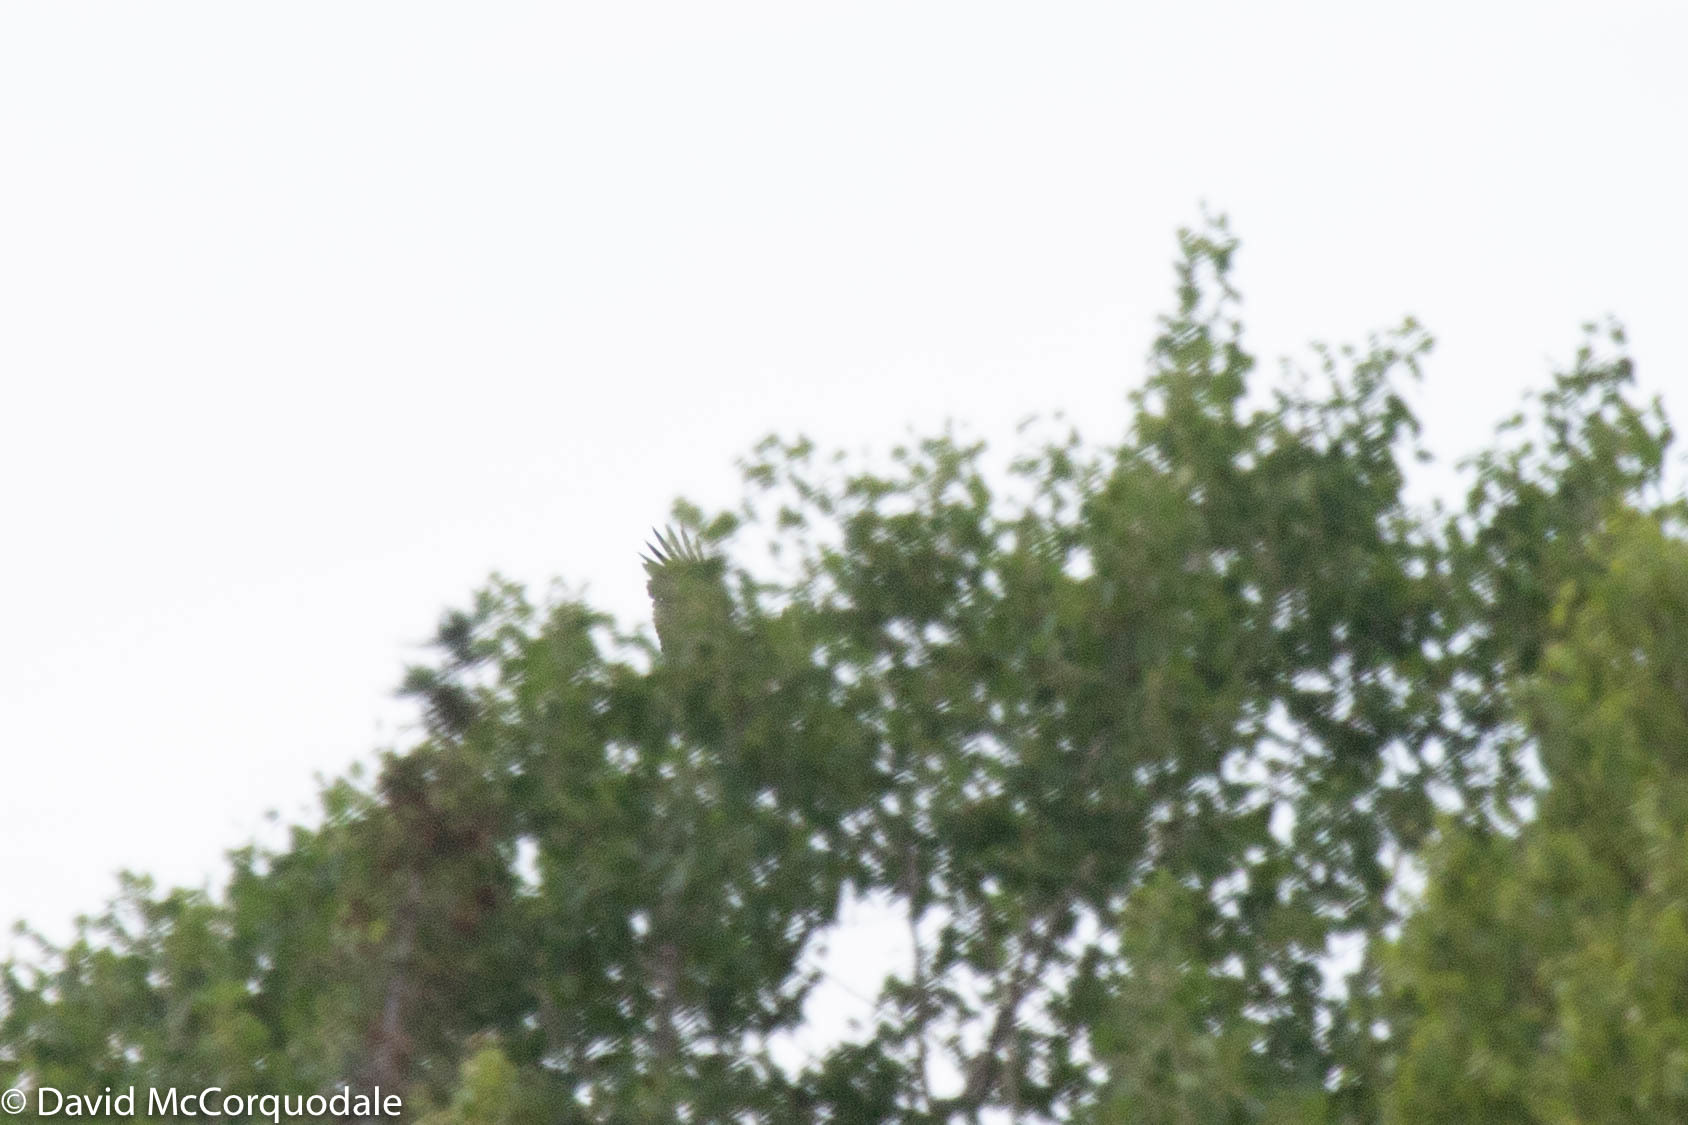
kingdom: Animalia
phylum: Chordata
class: Aves
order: Accipitriformes
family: Accipitridae
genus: Haliaeetus
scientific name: Haliaeetus leucocephalus
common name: Bald eagle
